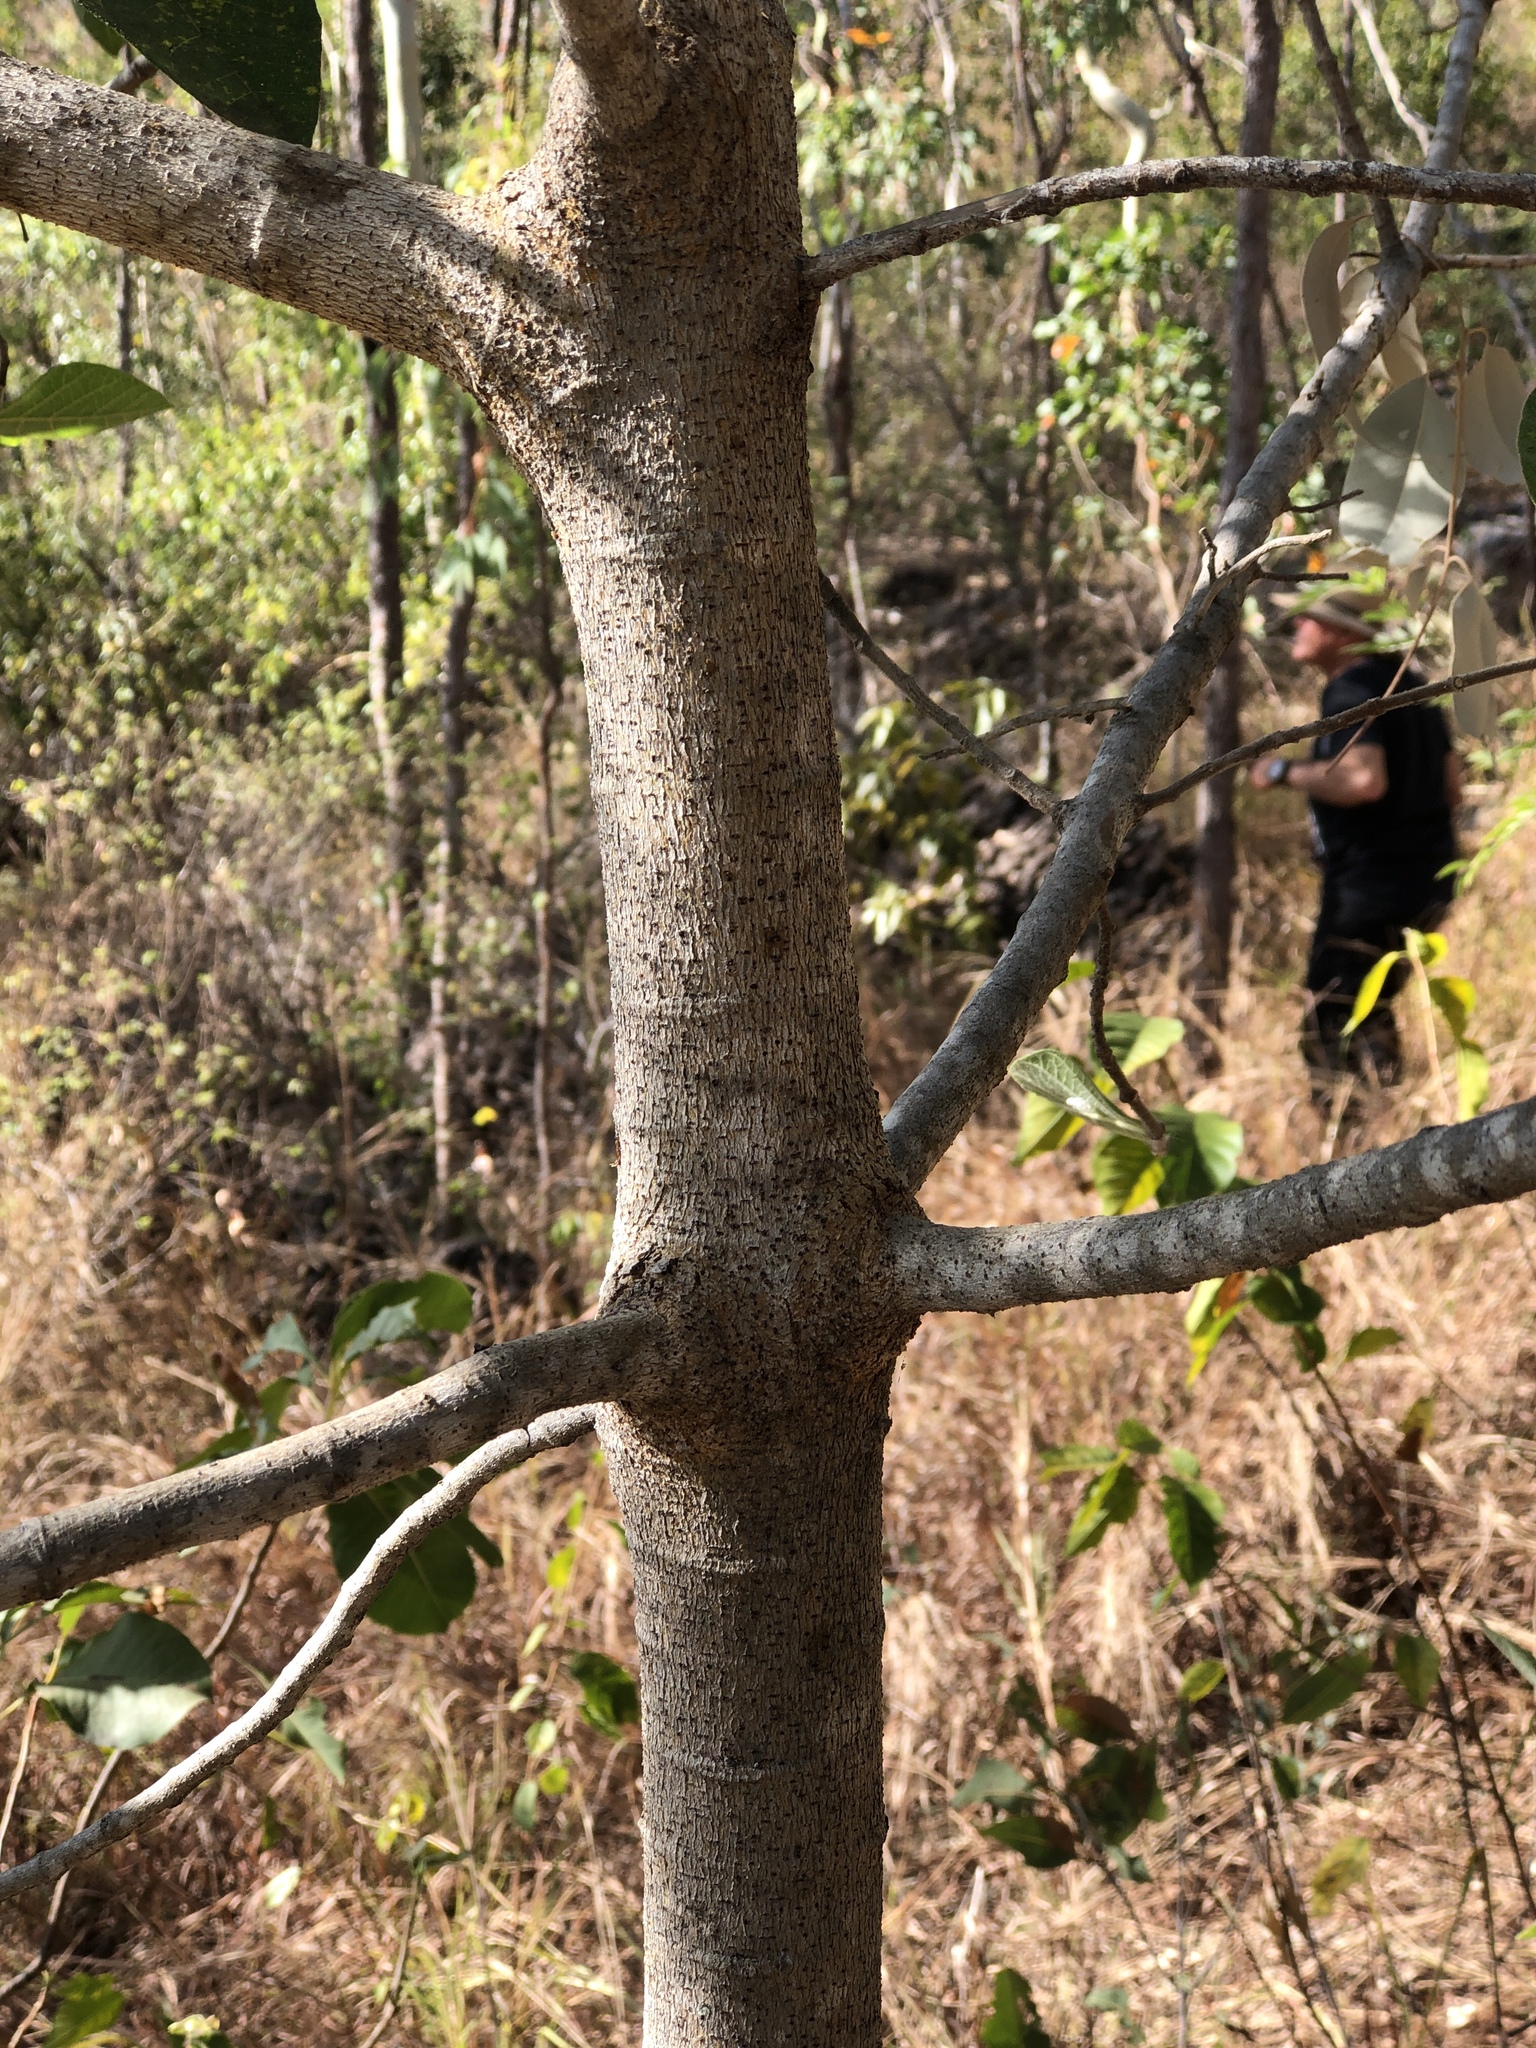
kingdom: Plantae
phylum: Tracheophyta
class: Magnoliopsida
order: Rosales
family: Moraceae
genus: Ficus
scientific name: Ficus opposita
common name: Figwood
